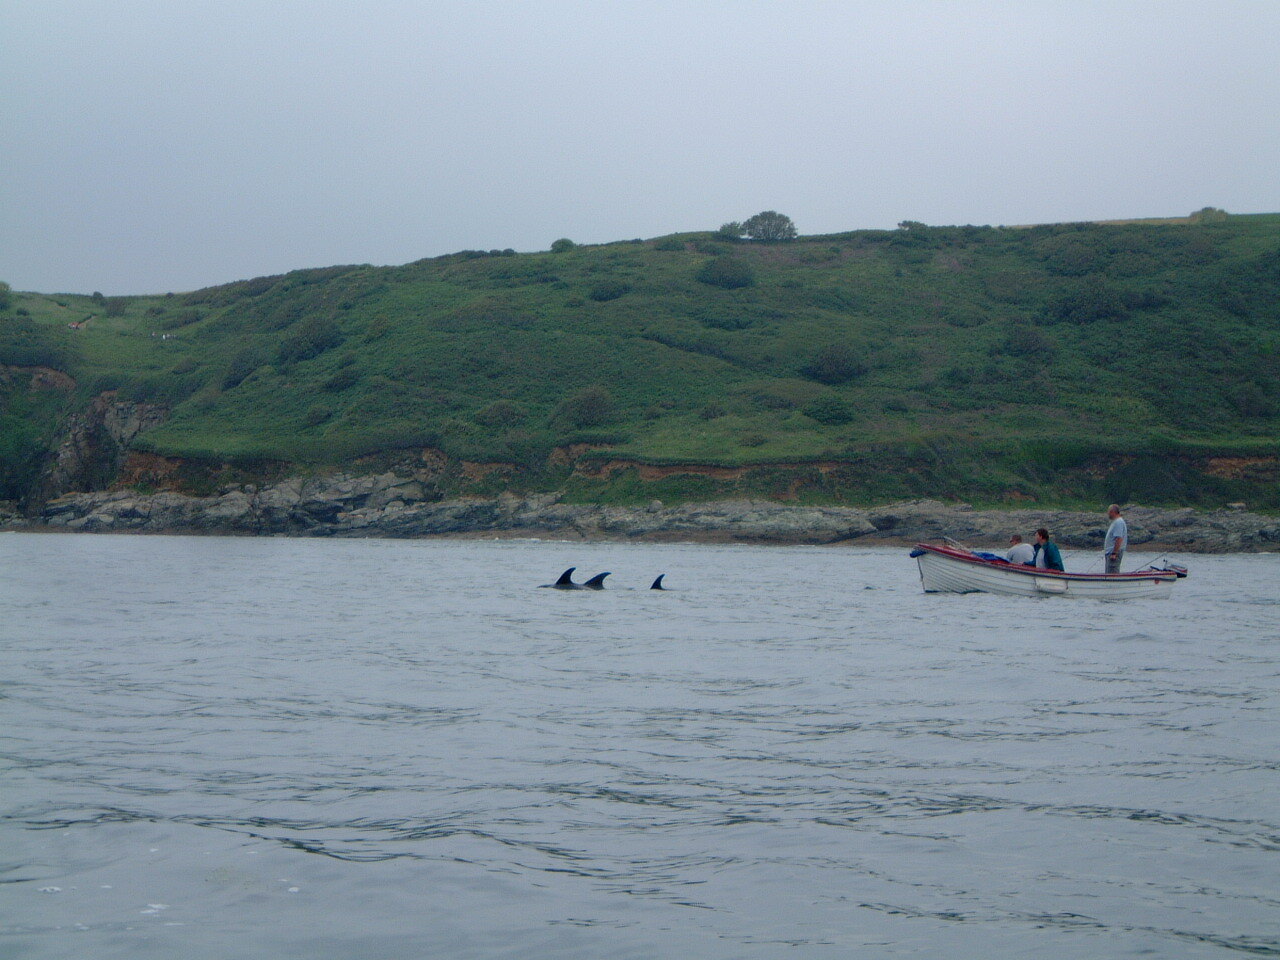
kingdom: Animalia
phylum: Chordata
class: Mammalia
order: Cetacea
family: Delphinidae
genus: Delphinus
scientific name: Delphinus delphis
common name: Common dolphin
